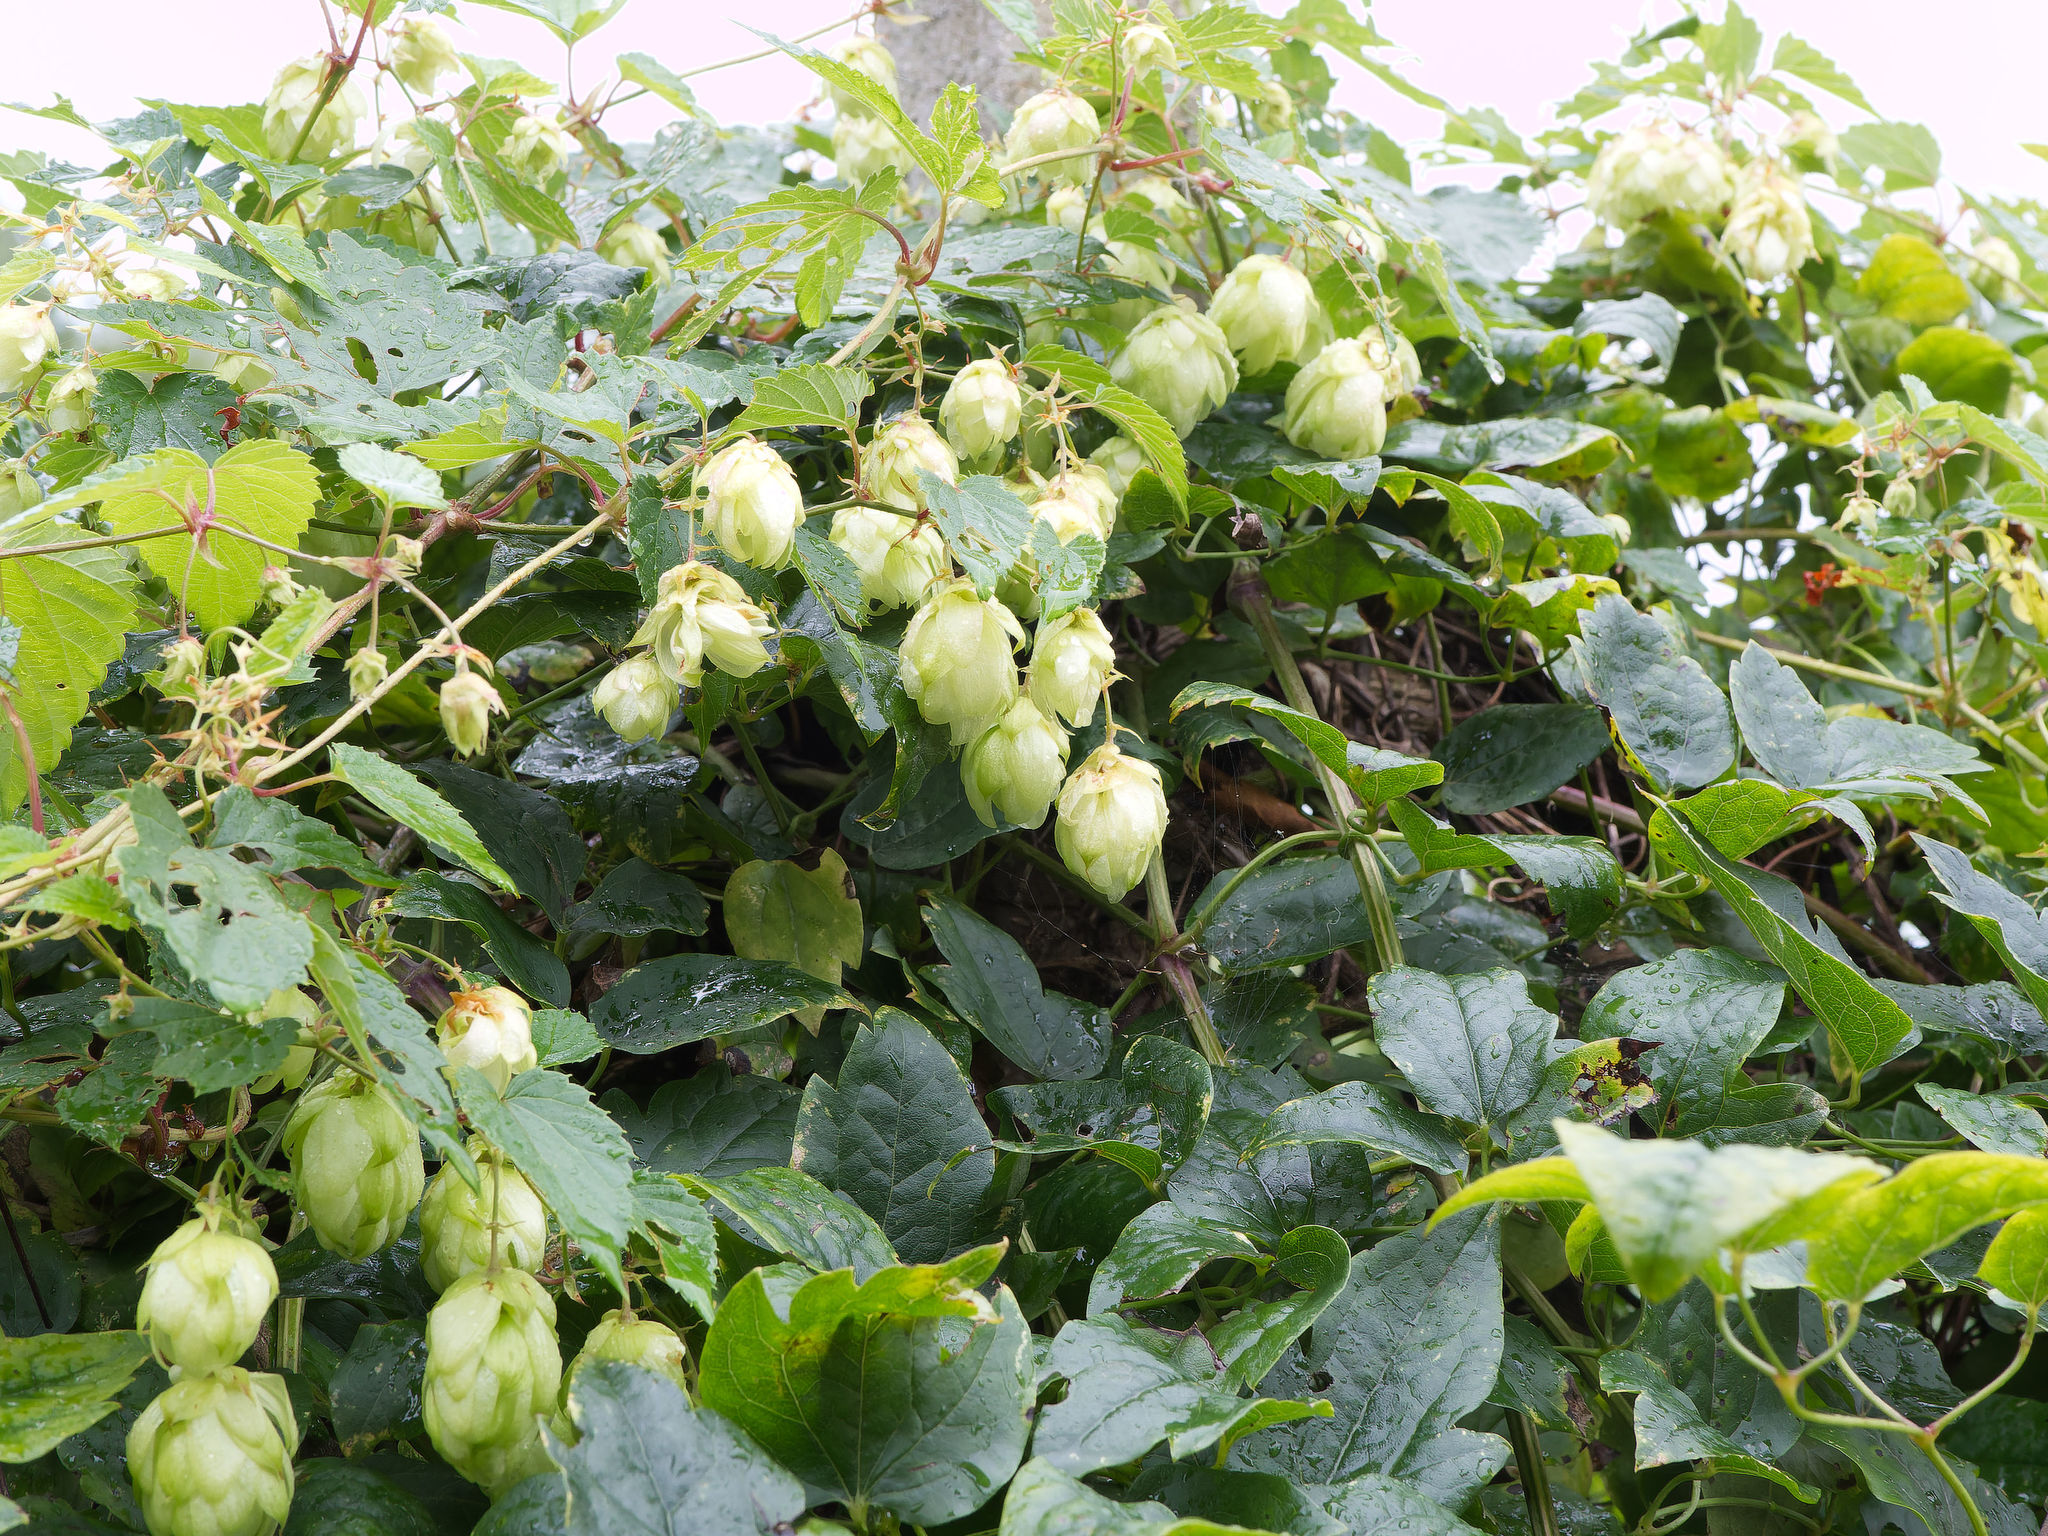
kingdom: Plantae
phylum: Tracheophyta
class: Magnoliopsida
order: Rosales
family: Cannabaceae
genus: Humulus
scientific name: Humulus lupulus
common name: Hop
